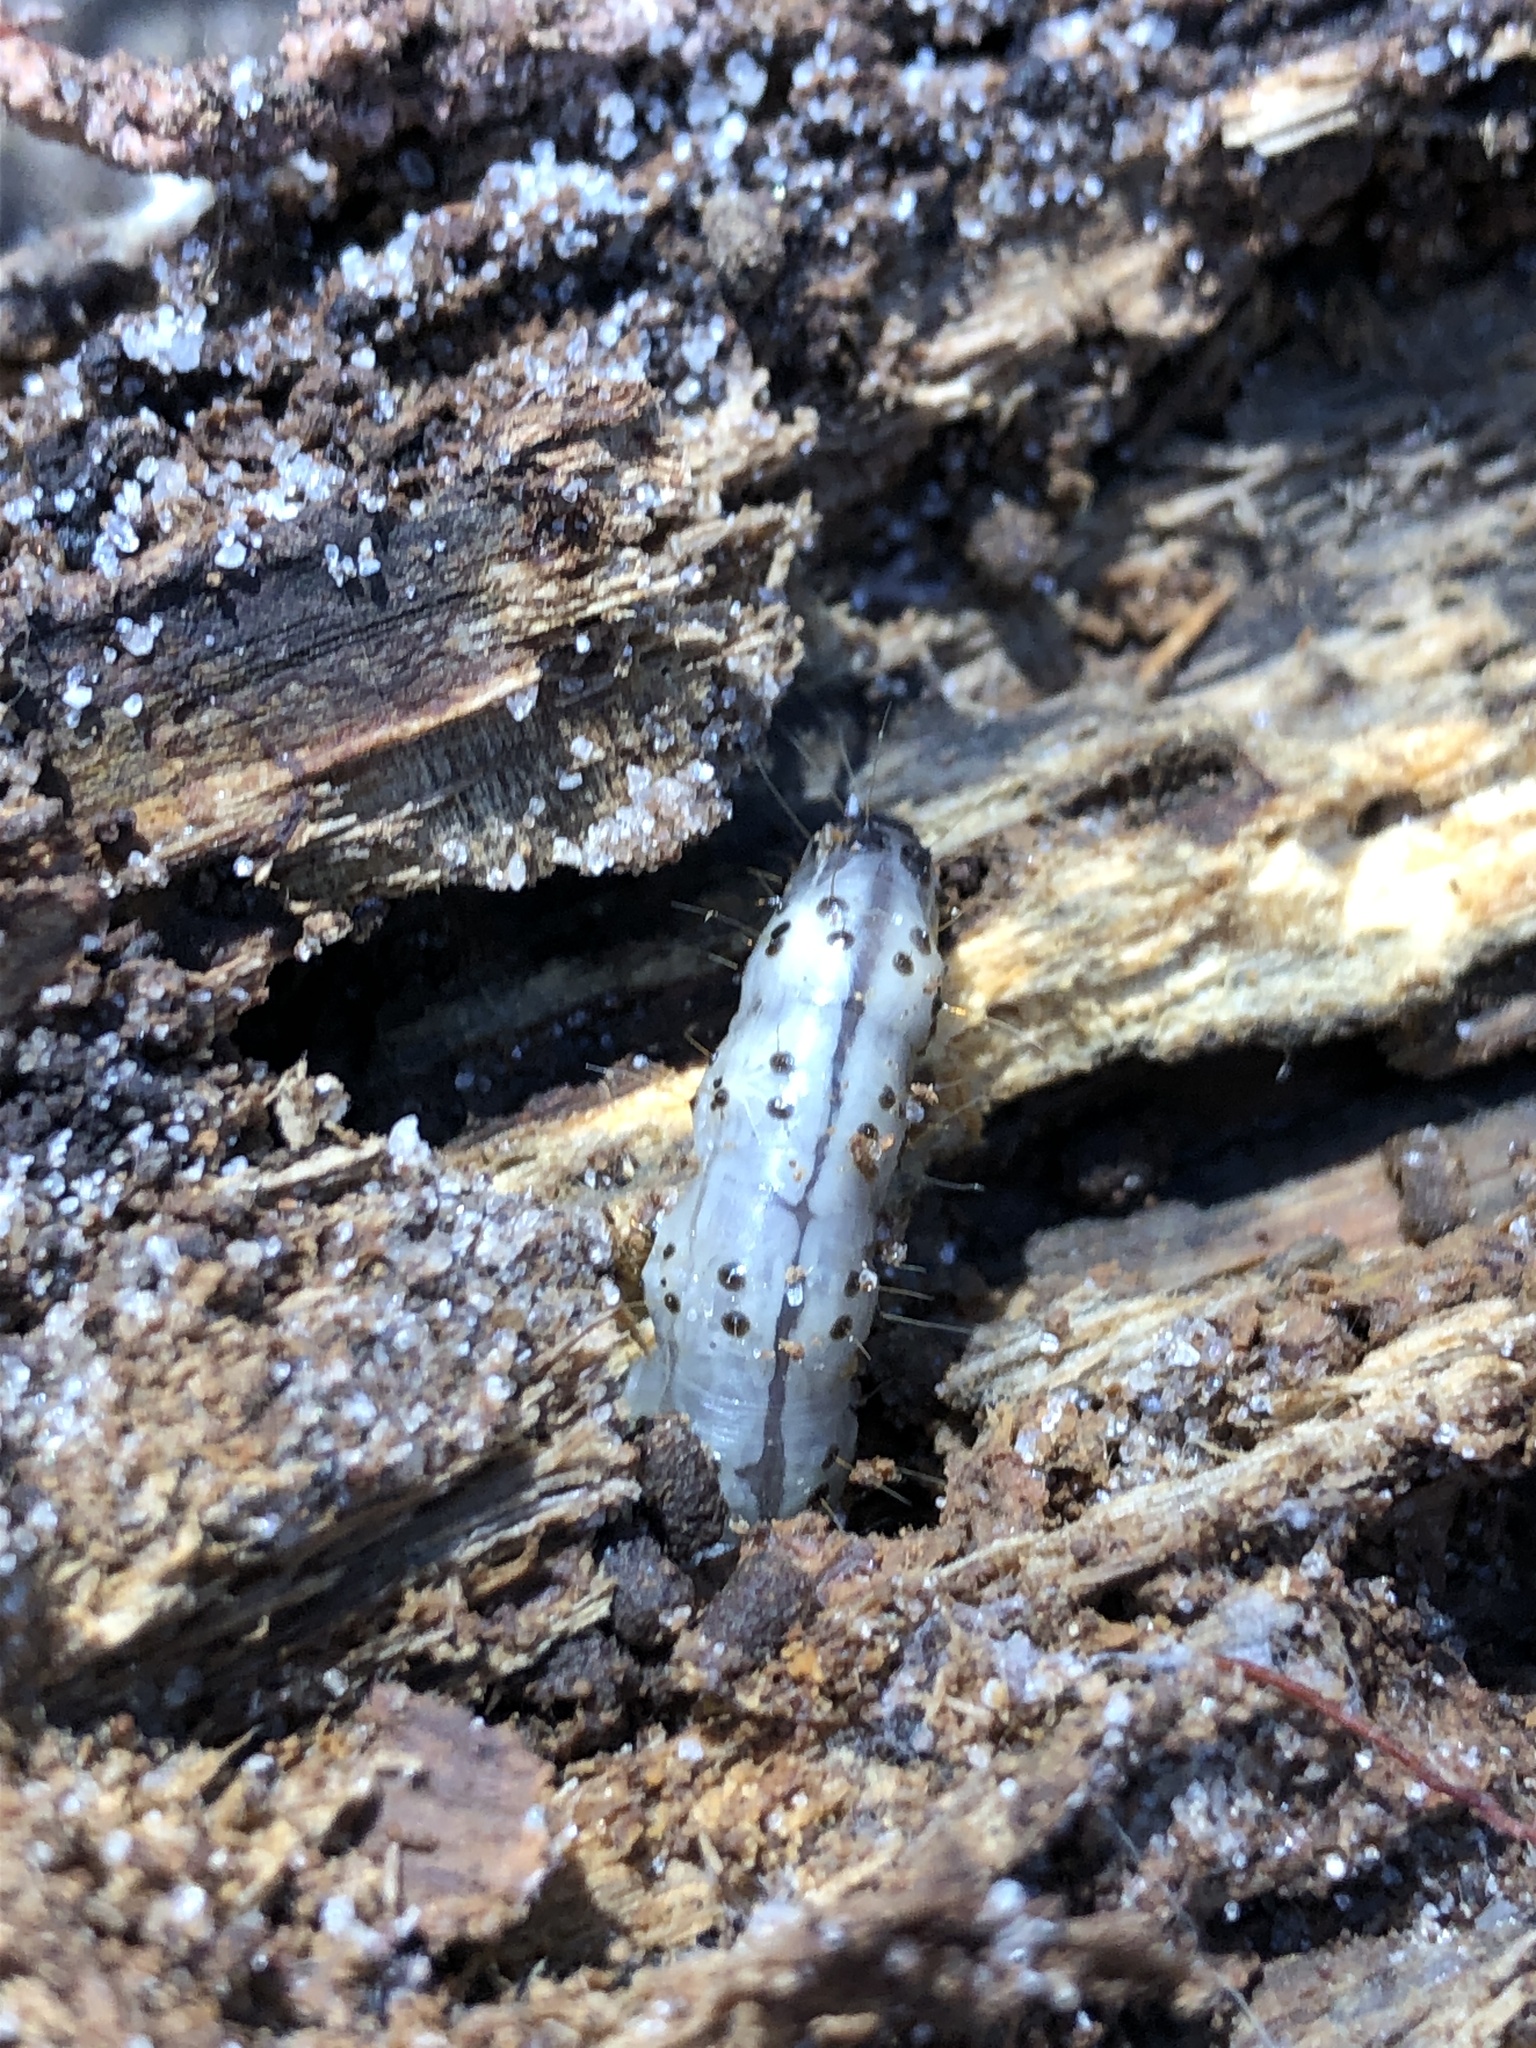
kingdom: Animalia
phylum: Arthropoda
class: Insecta
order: Lepidoptera
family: Erebidae
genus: Scolecocampa
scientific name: Scolecocampa liburna
